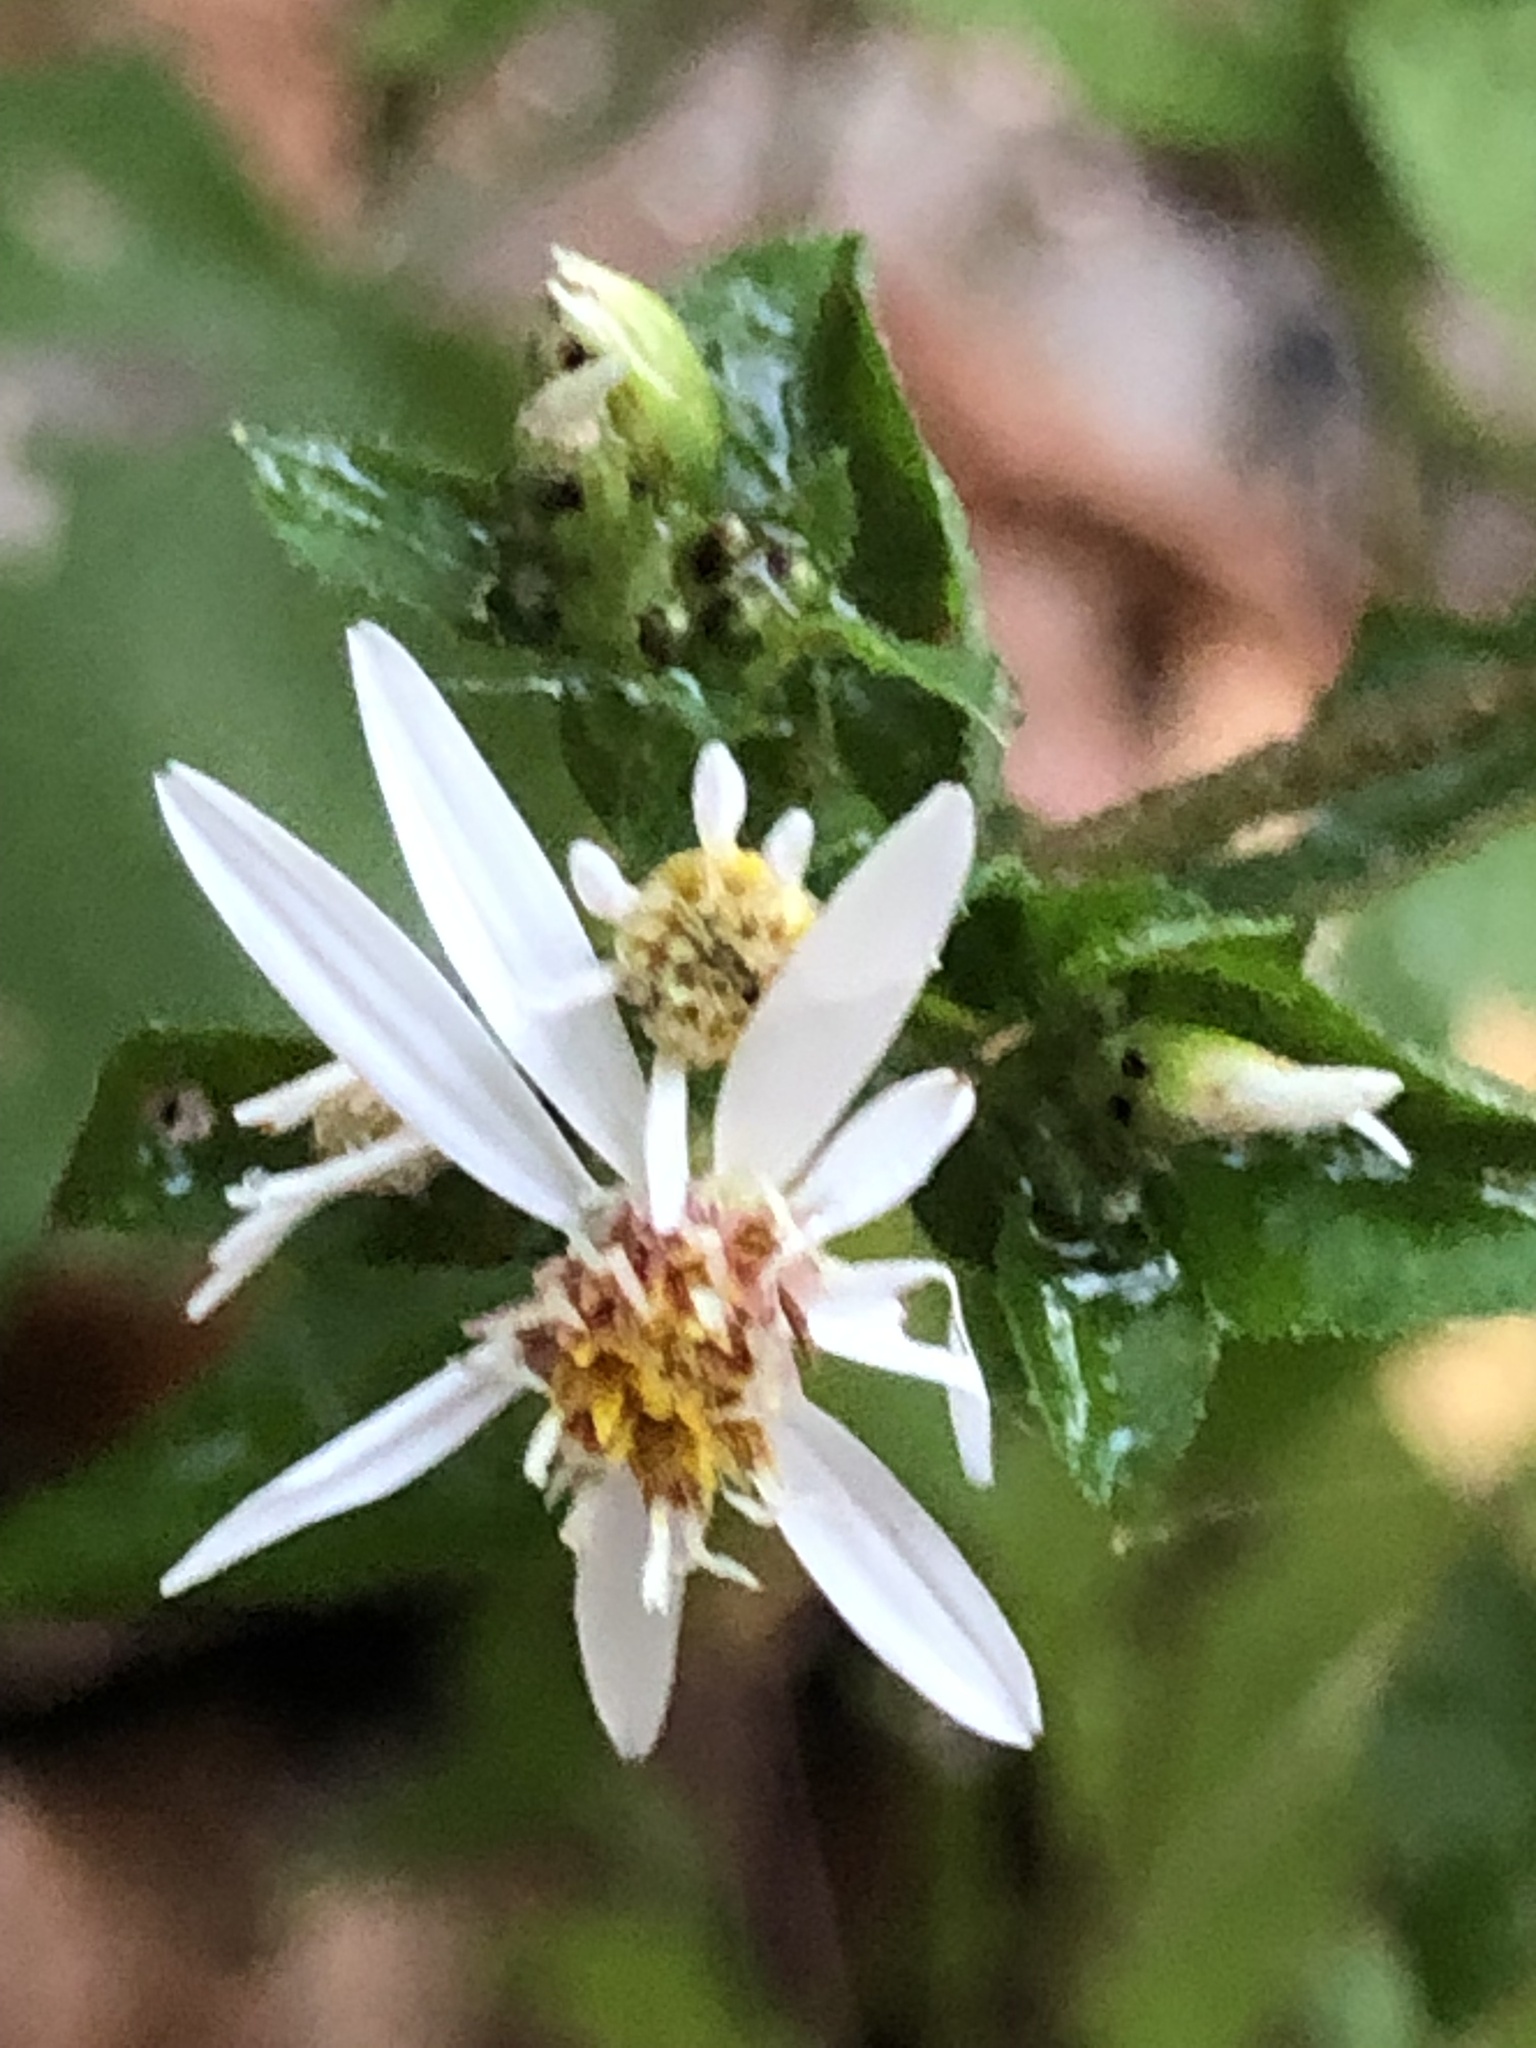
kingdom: Plantae
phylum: Tracheophyta
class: Magnoliopsida
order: Asterales
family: Asteraceae
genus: Eurybia
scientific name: Eurybia divaricata
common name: White wood aster
